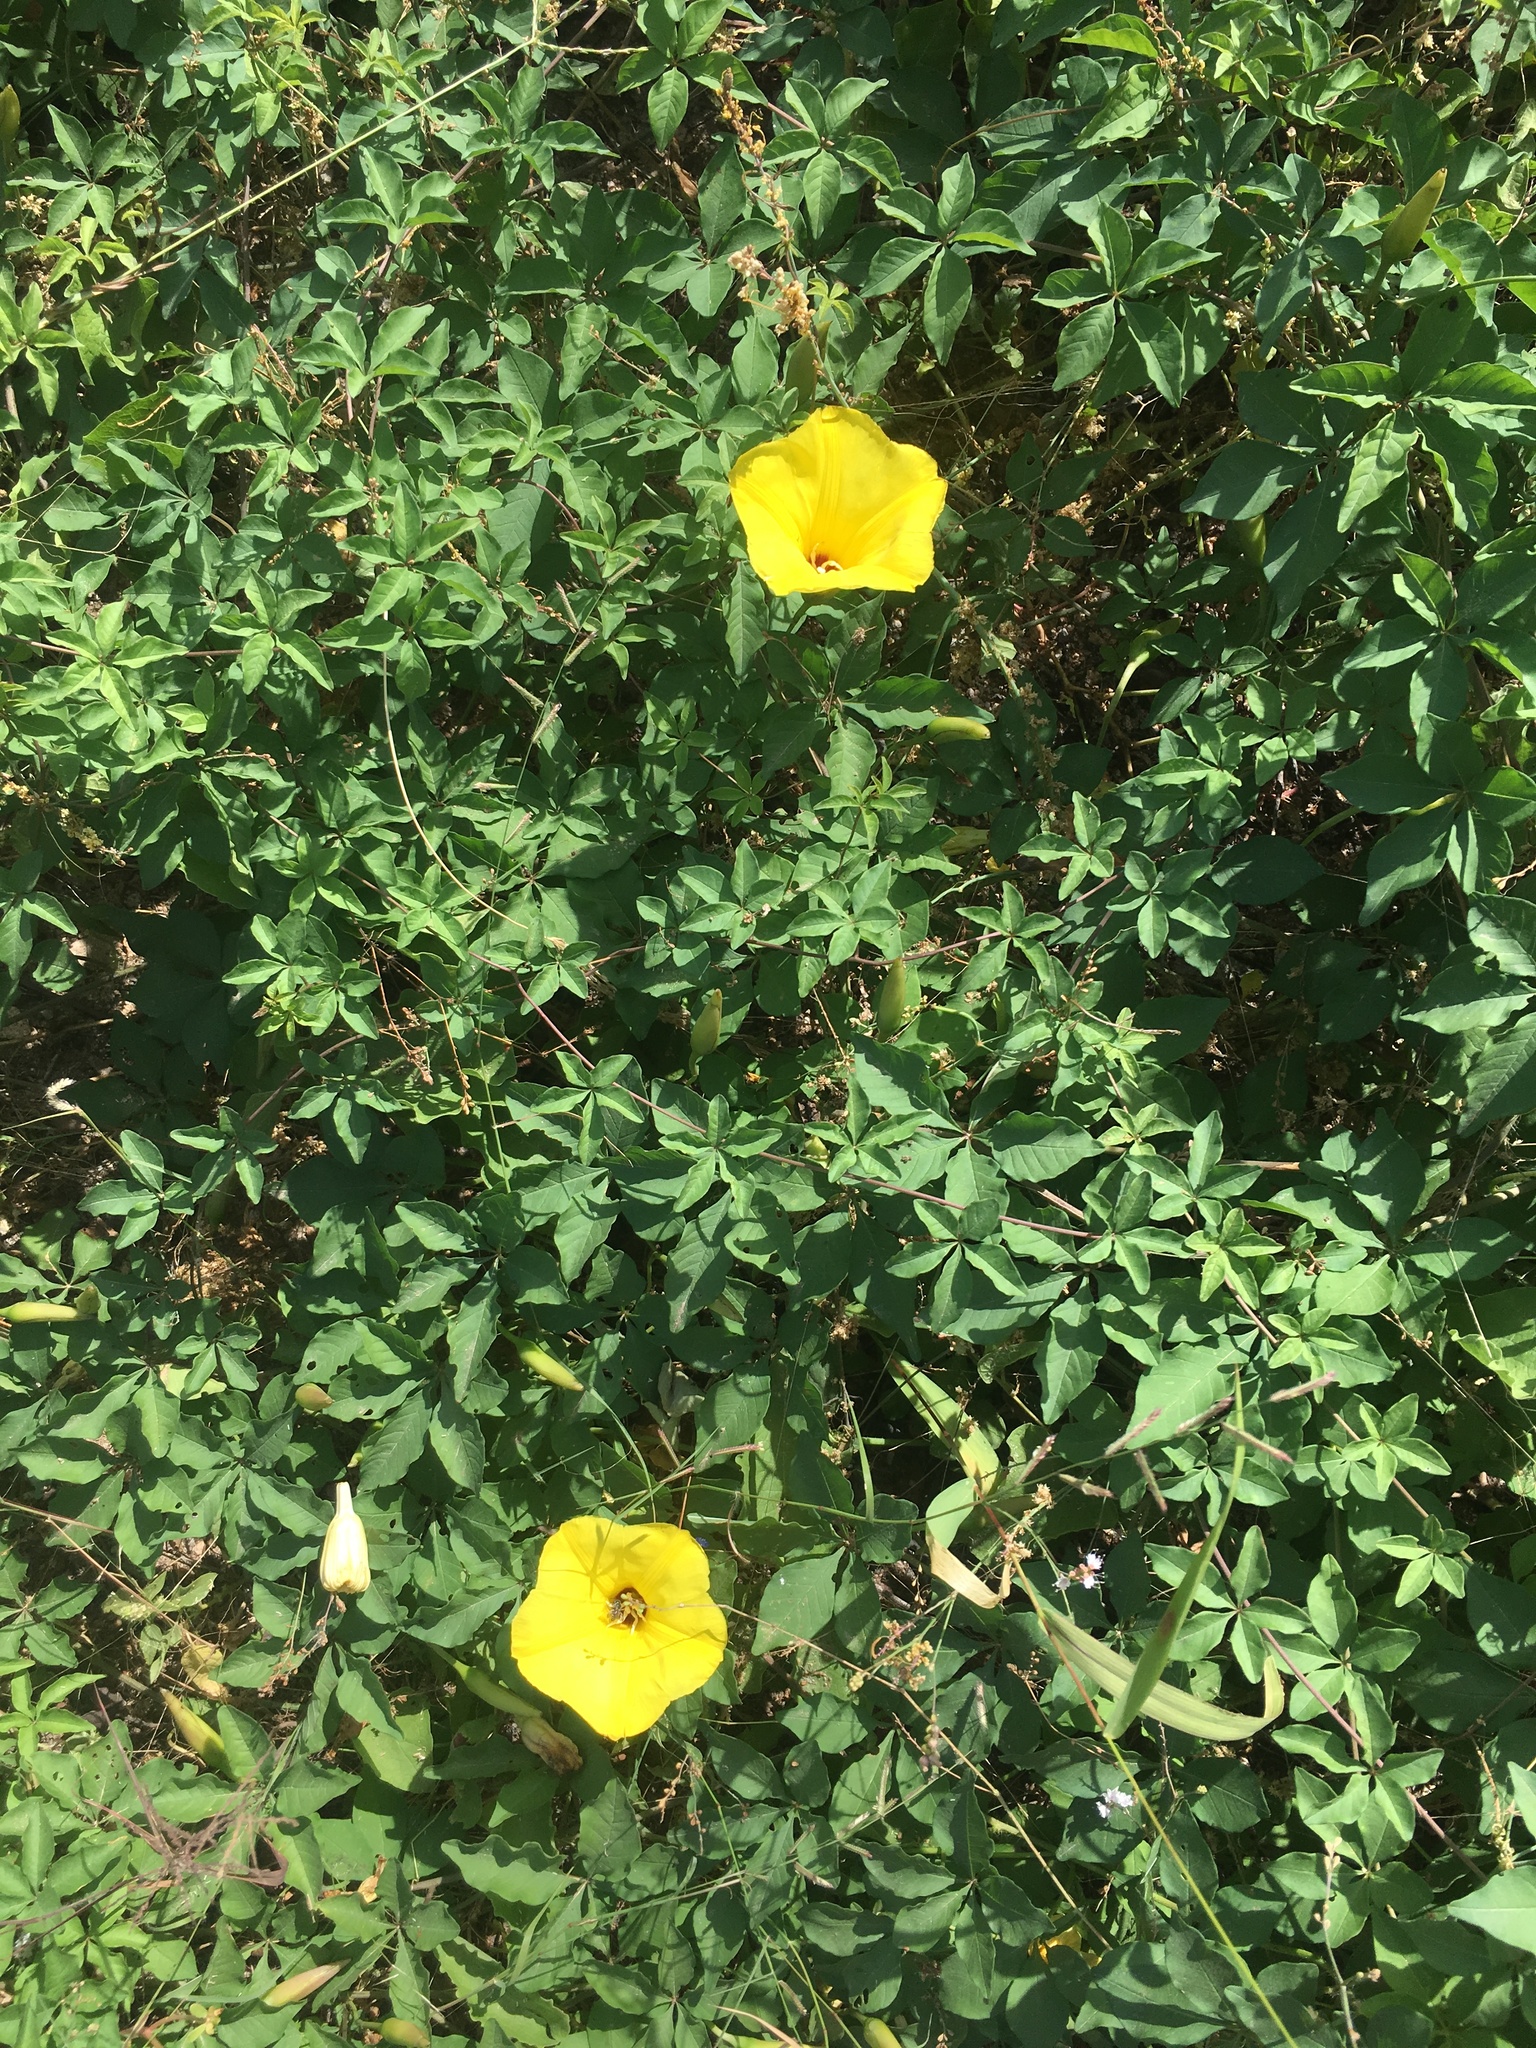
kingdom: Plantae
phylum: Tracheophyta
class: Magnoliopsida
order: Solanales
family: Convolvulaceae
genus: Distimake
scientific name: Distimake aureus
